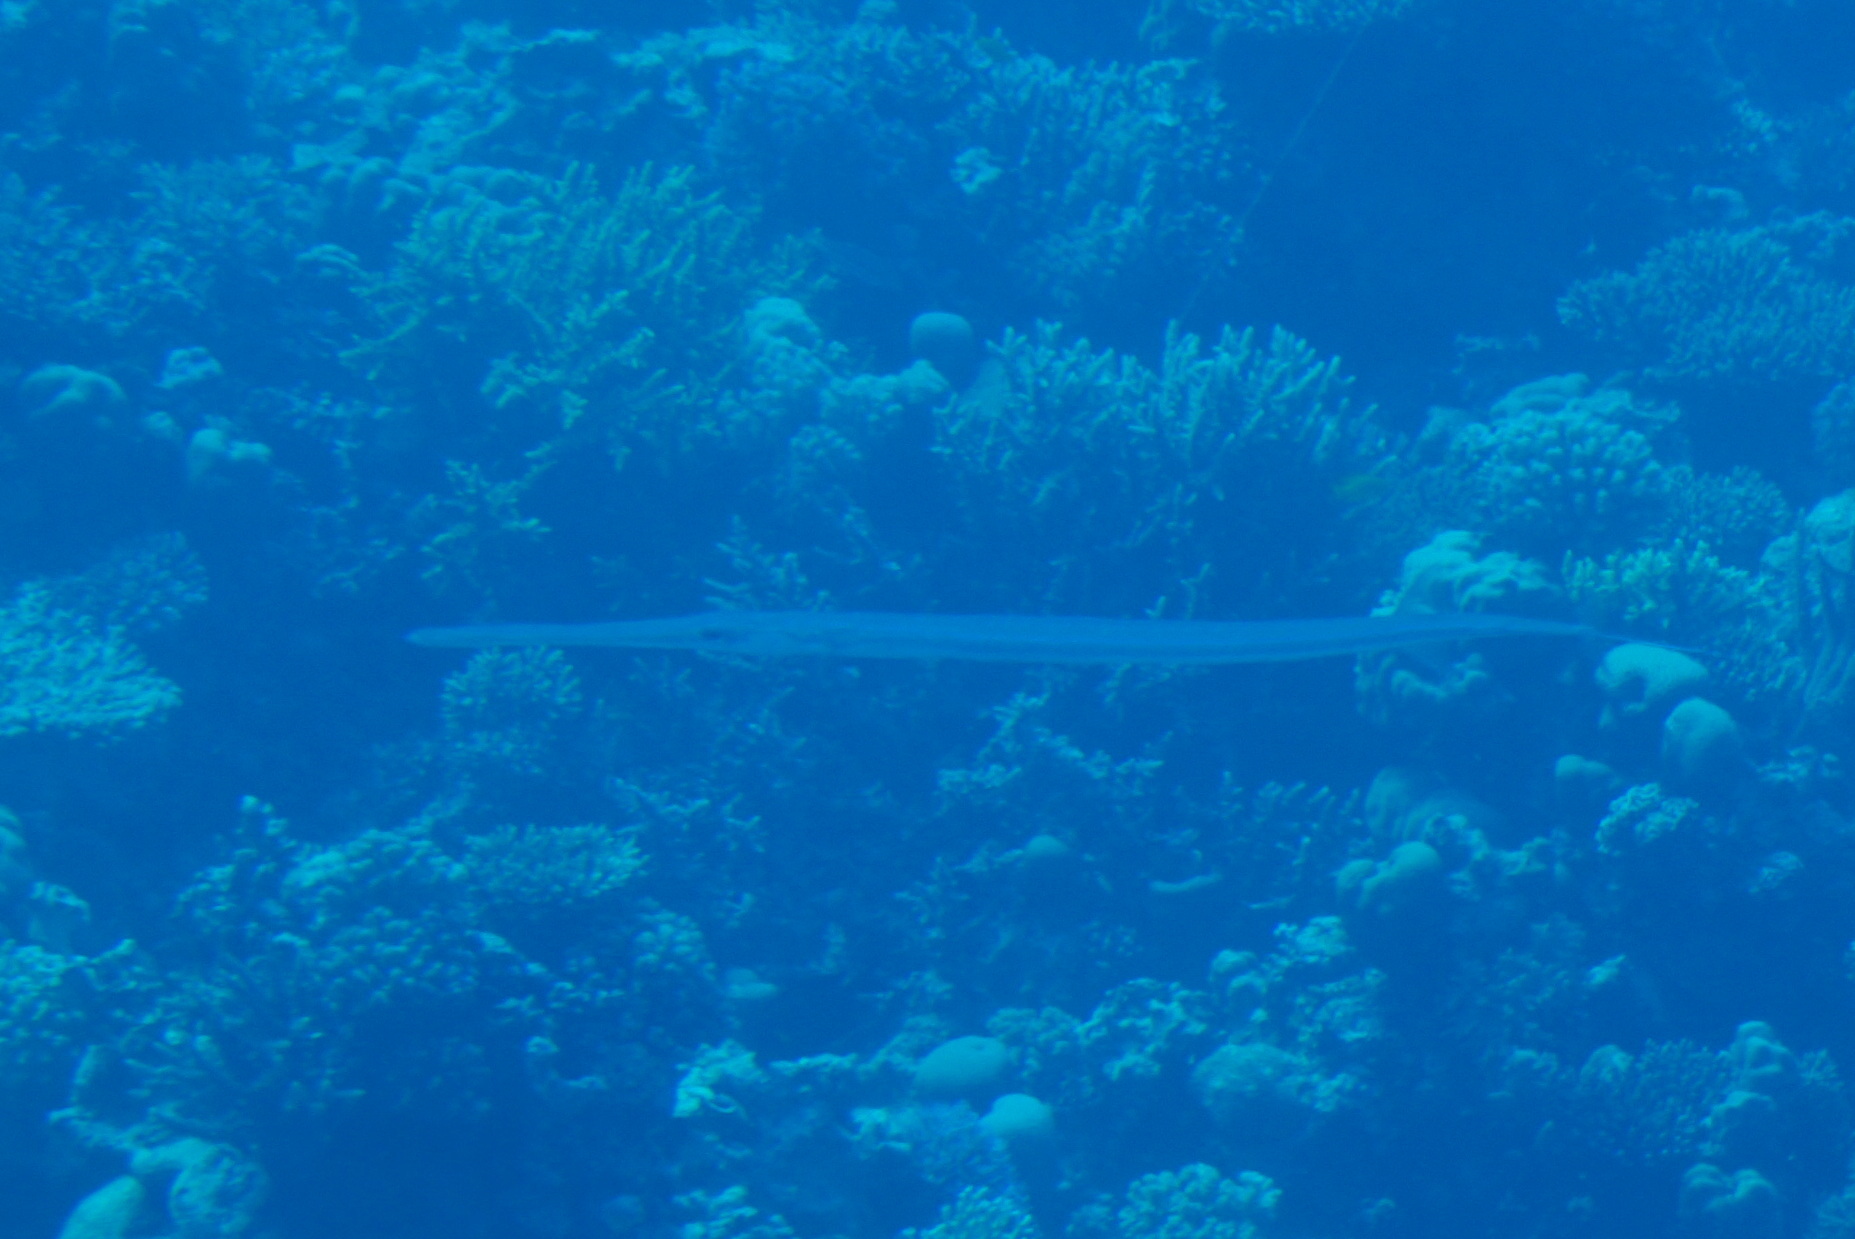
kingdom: Animalia
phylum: Chordata
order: Syngnathiformes
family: Fistulariidae
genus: Fistularia
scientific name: Fistularia commersonii
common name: Bluespotted cornetfish
